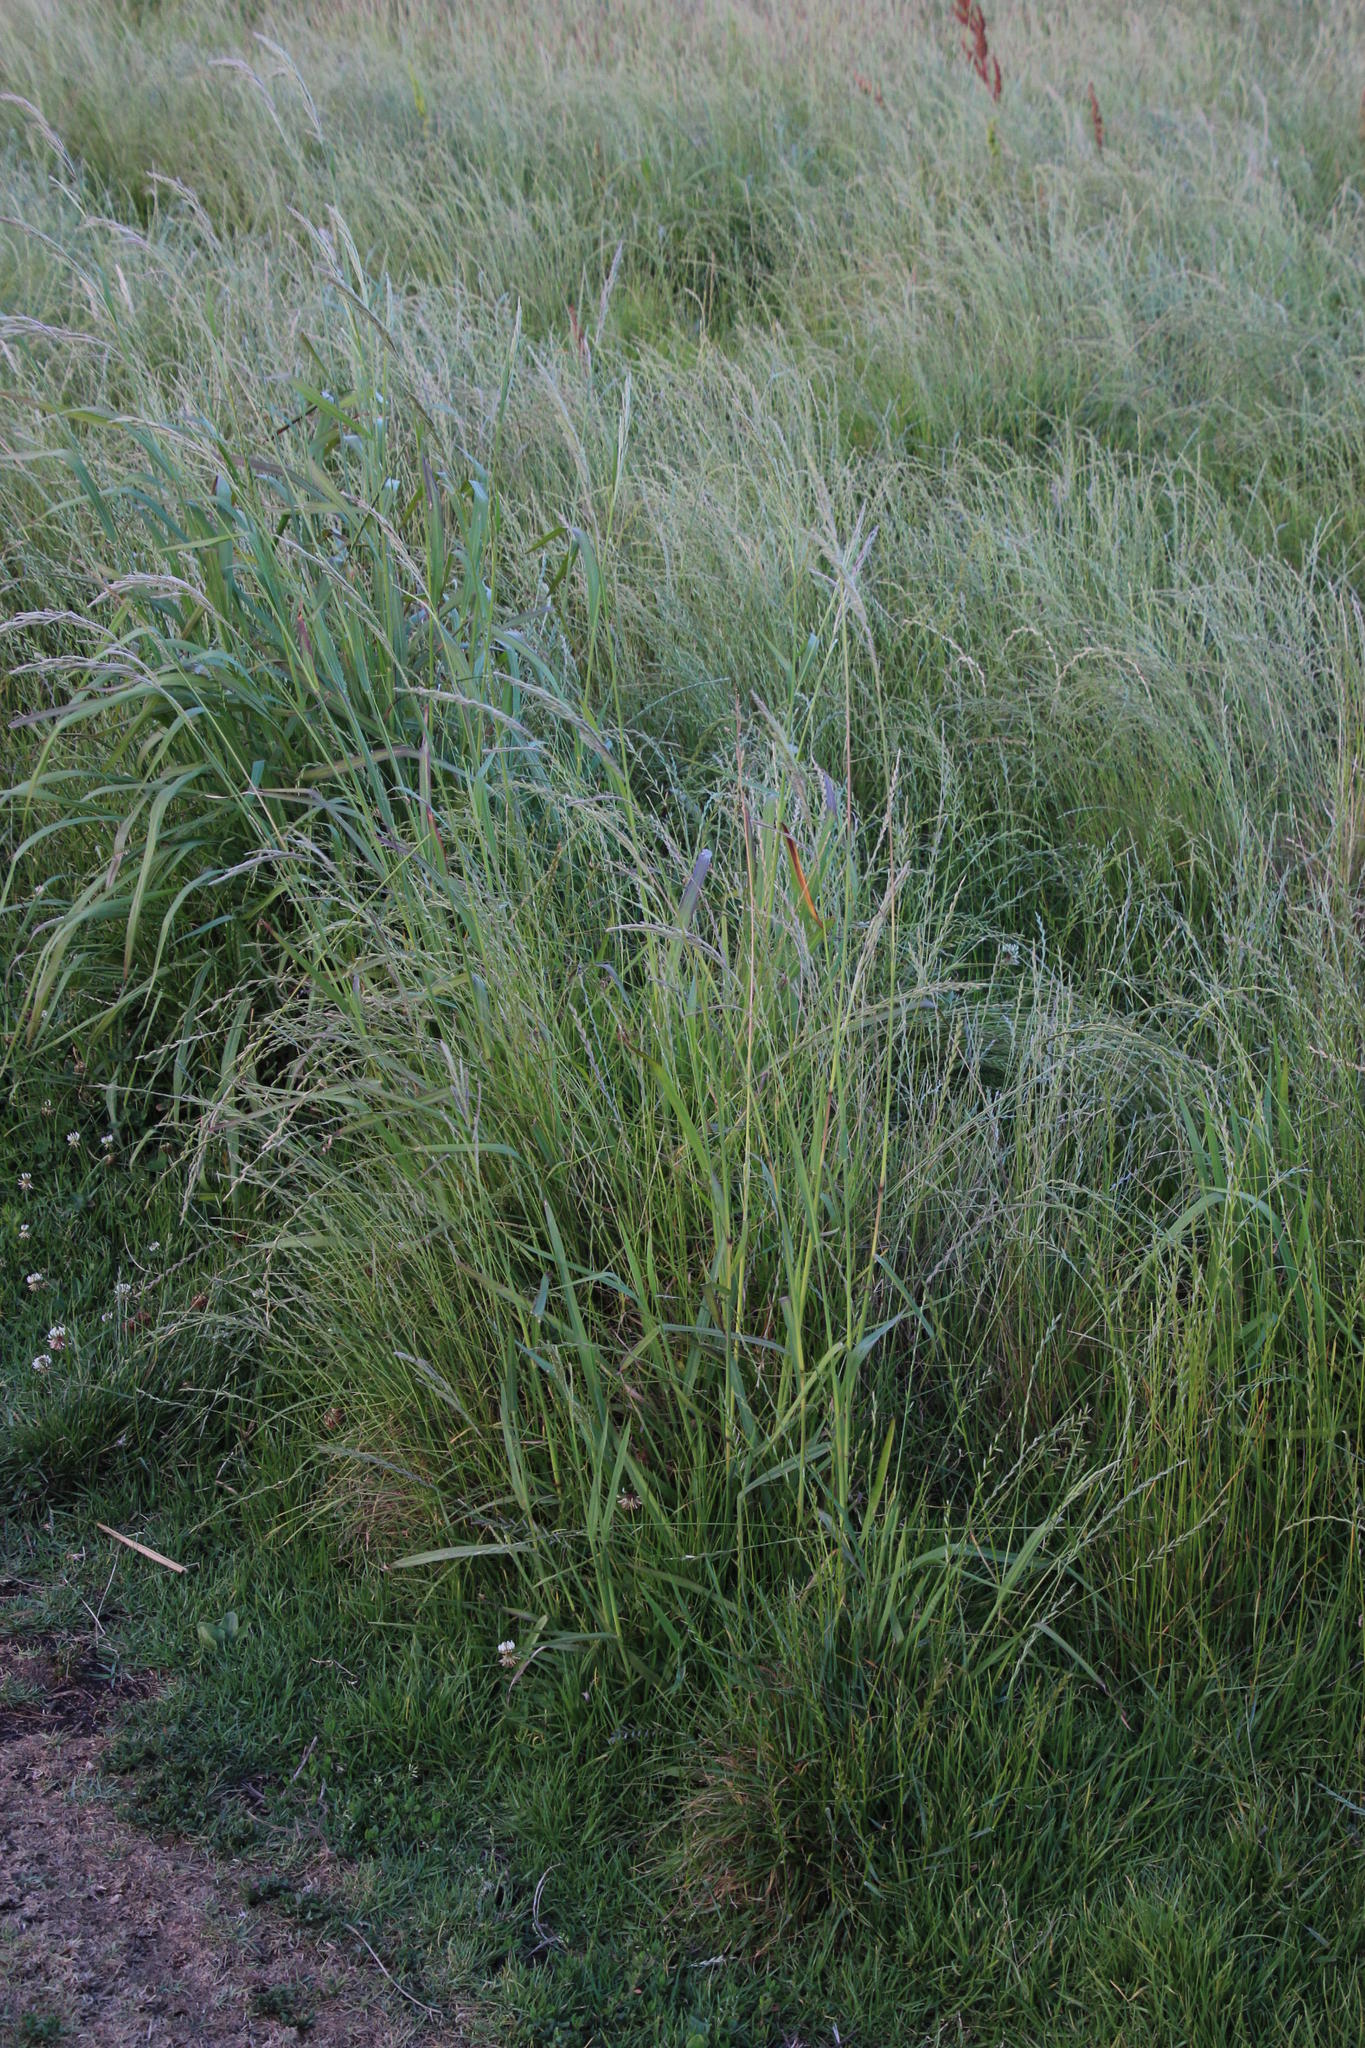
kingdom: Plantae
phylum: Tracheophyta
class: Liliopsida
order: Poales
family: Poaceae
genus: Paspalum
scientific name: Paspalum urvillei
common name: Vasey's grass
